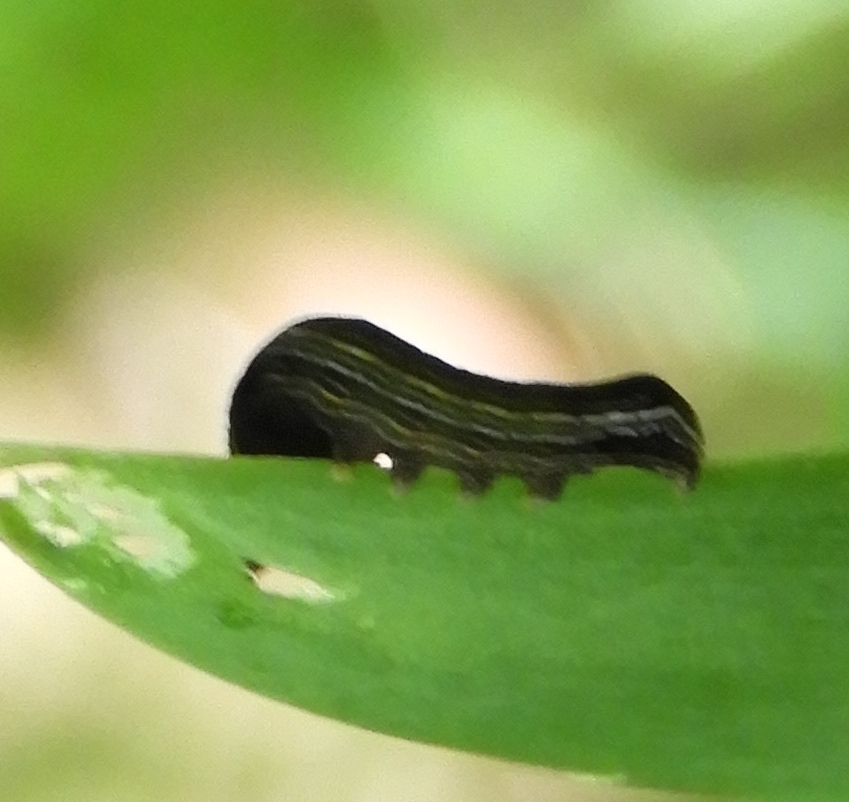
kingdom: Animalia
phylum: Arthropoda
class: Insecta
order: Lepidoptera
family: Noctuidae
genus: Spodoptera
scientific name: Spodoptera cosmioides
